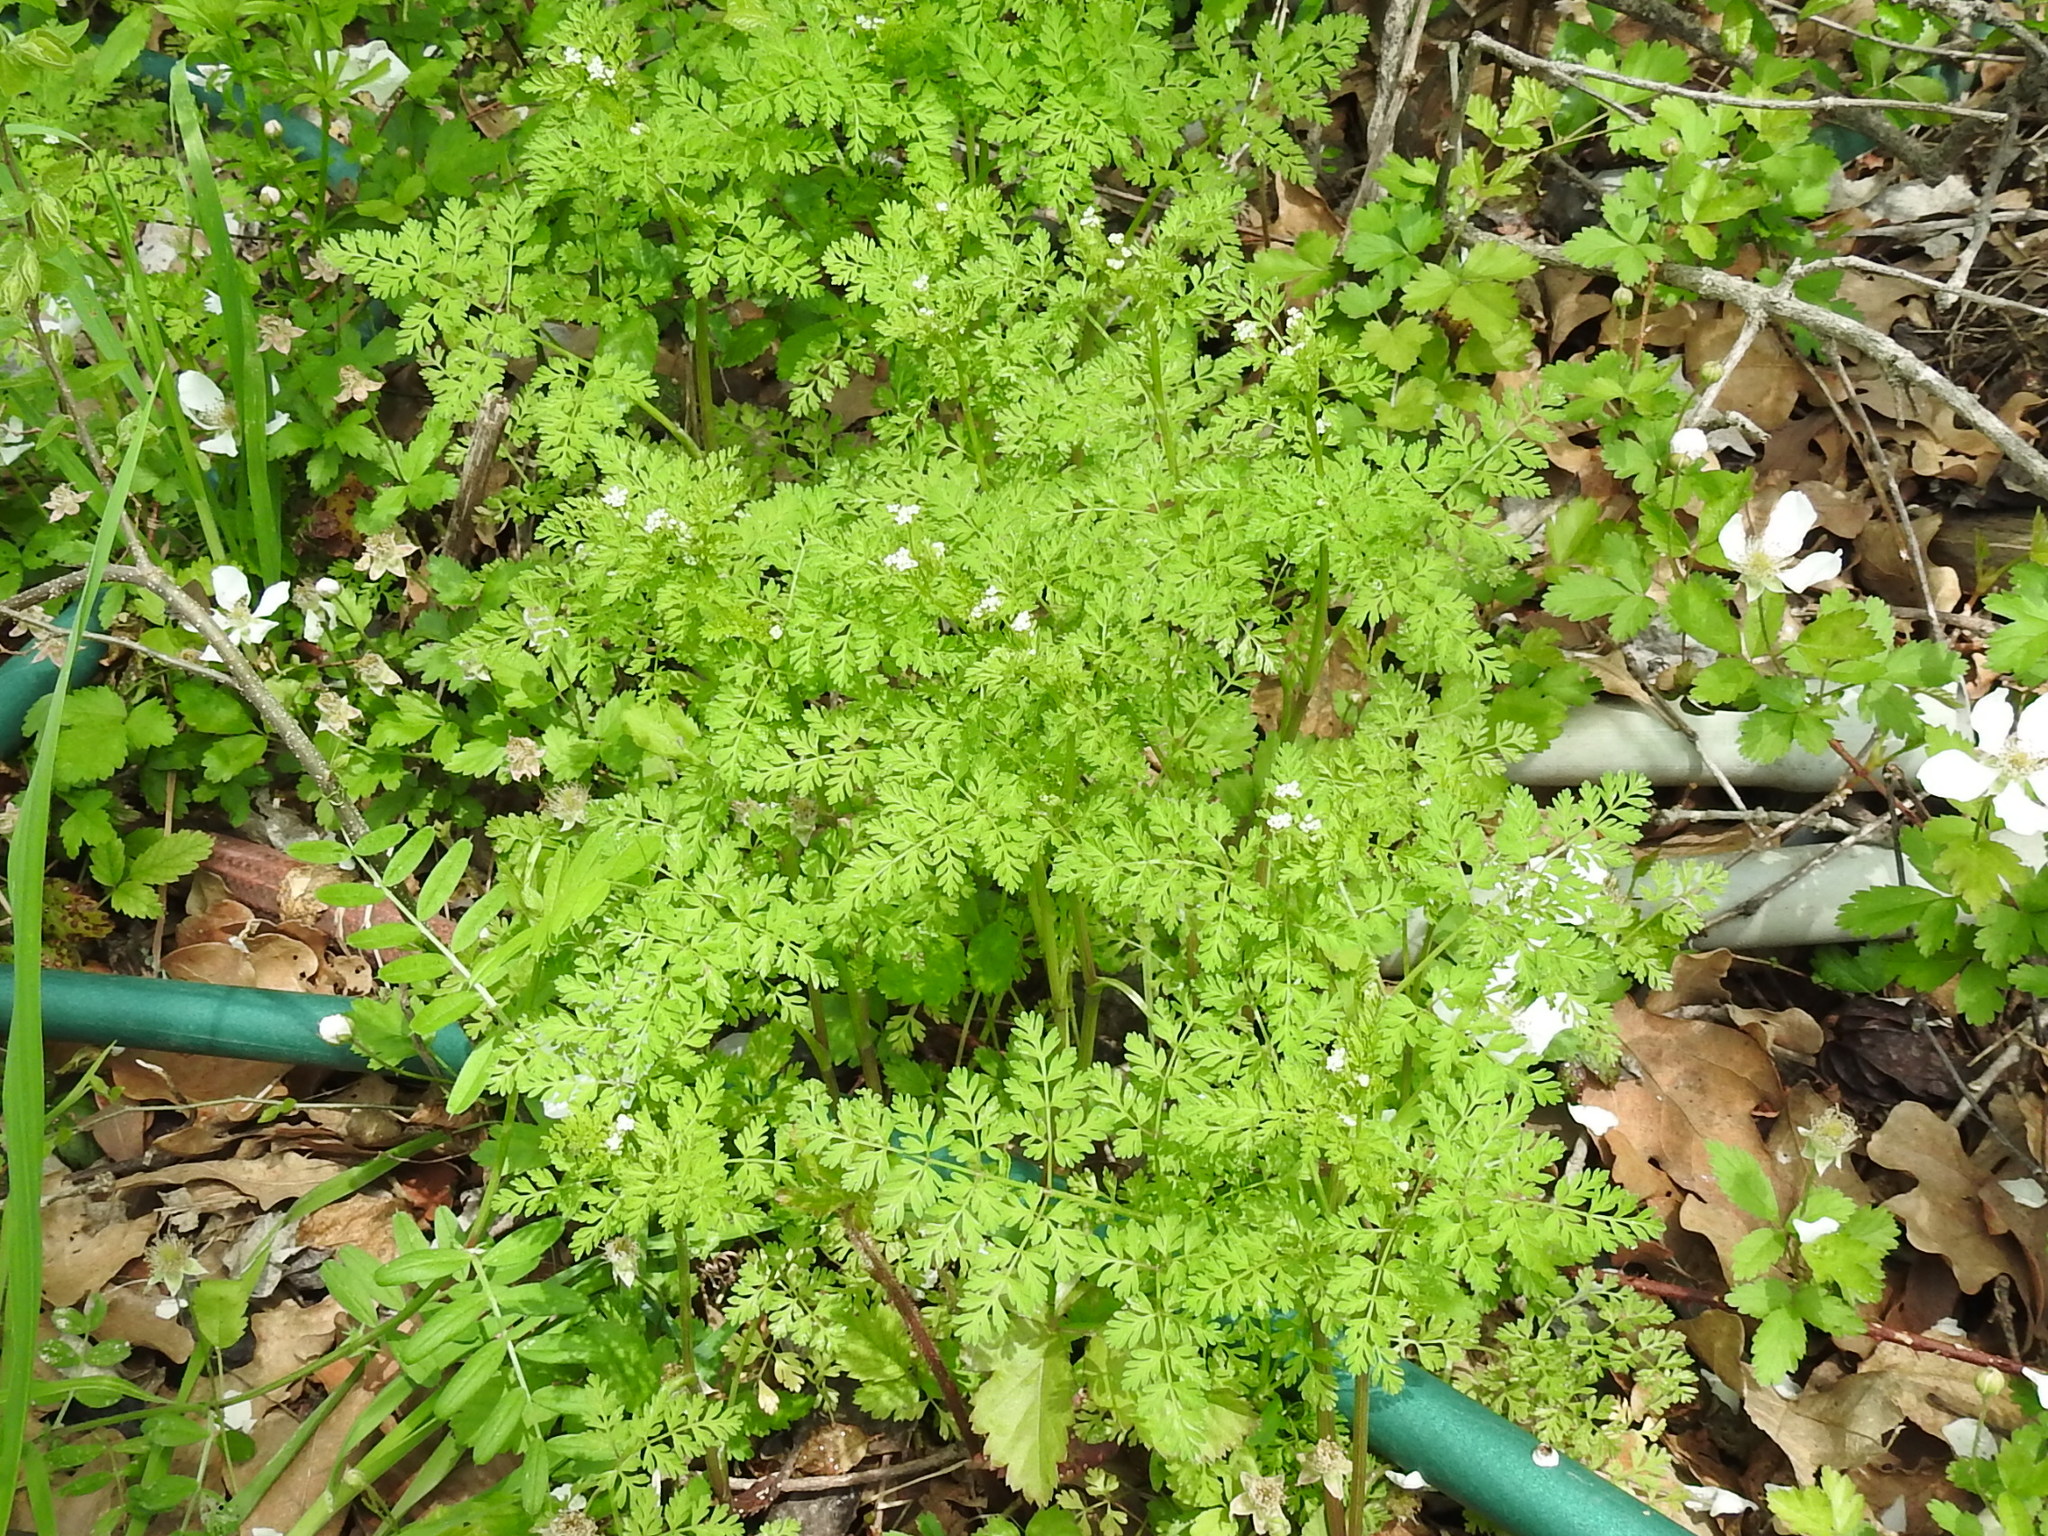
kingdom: Plantae
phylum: Tracheophyta
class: Magnoliopsida
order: Apiales
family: Apiaceae
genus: Chaerophyllum
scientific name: Chaerophyllum tainturieri
